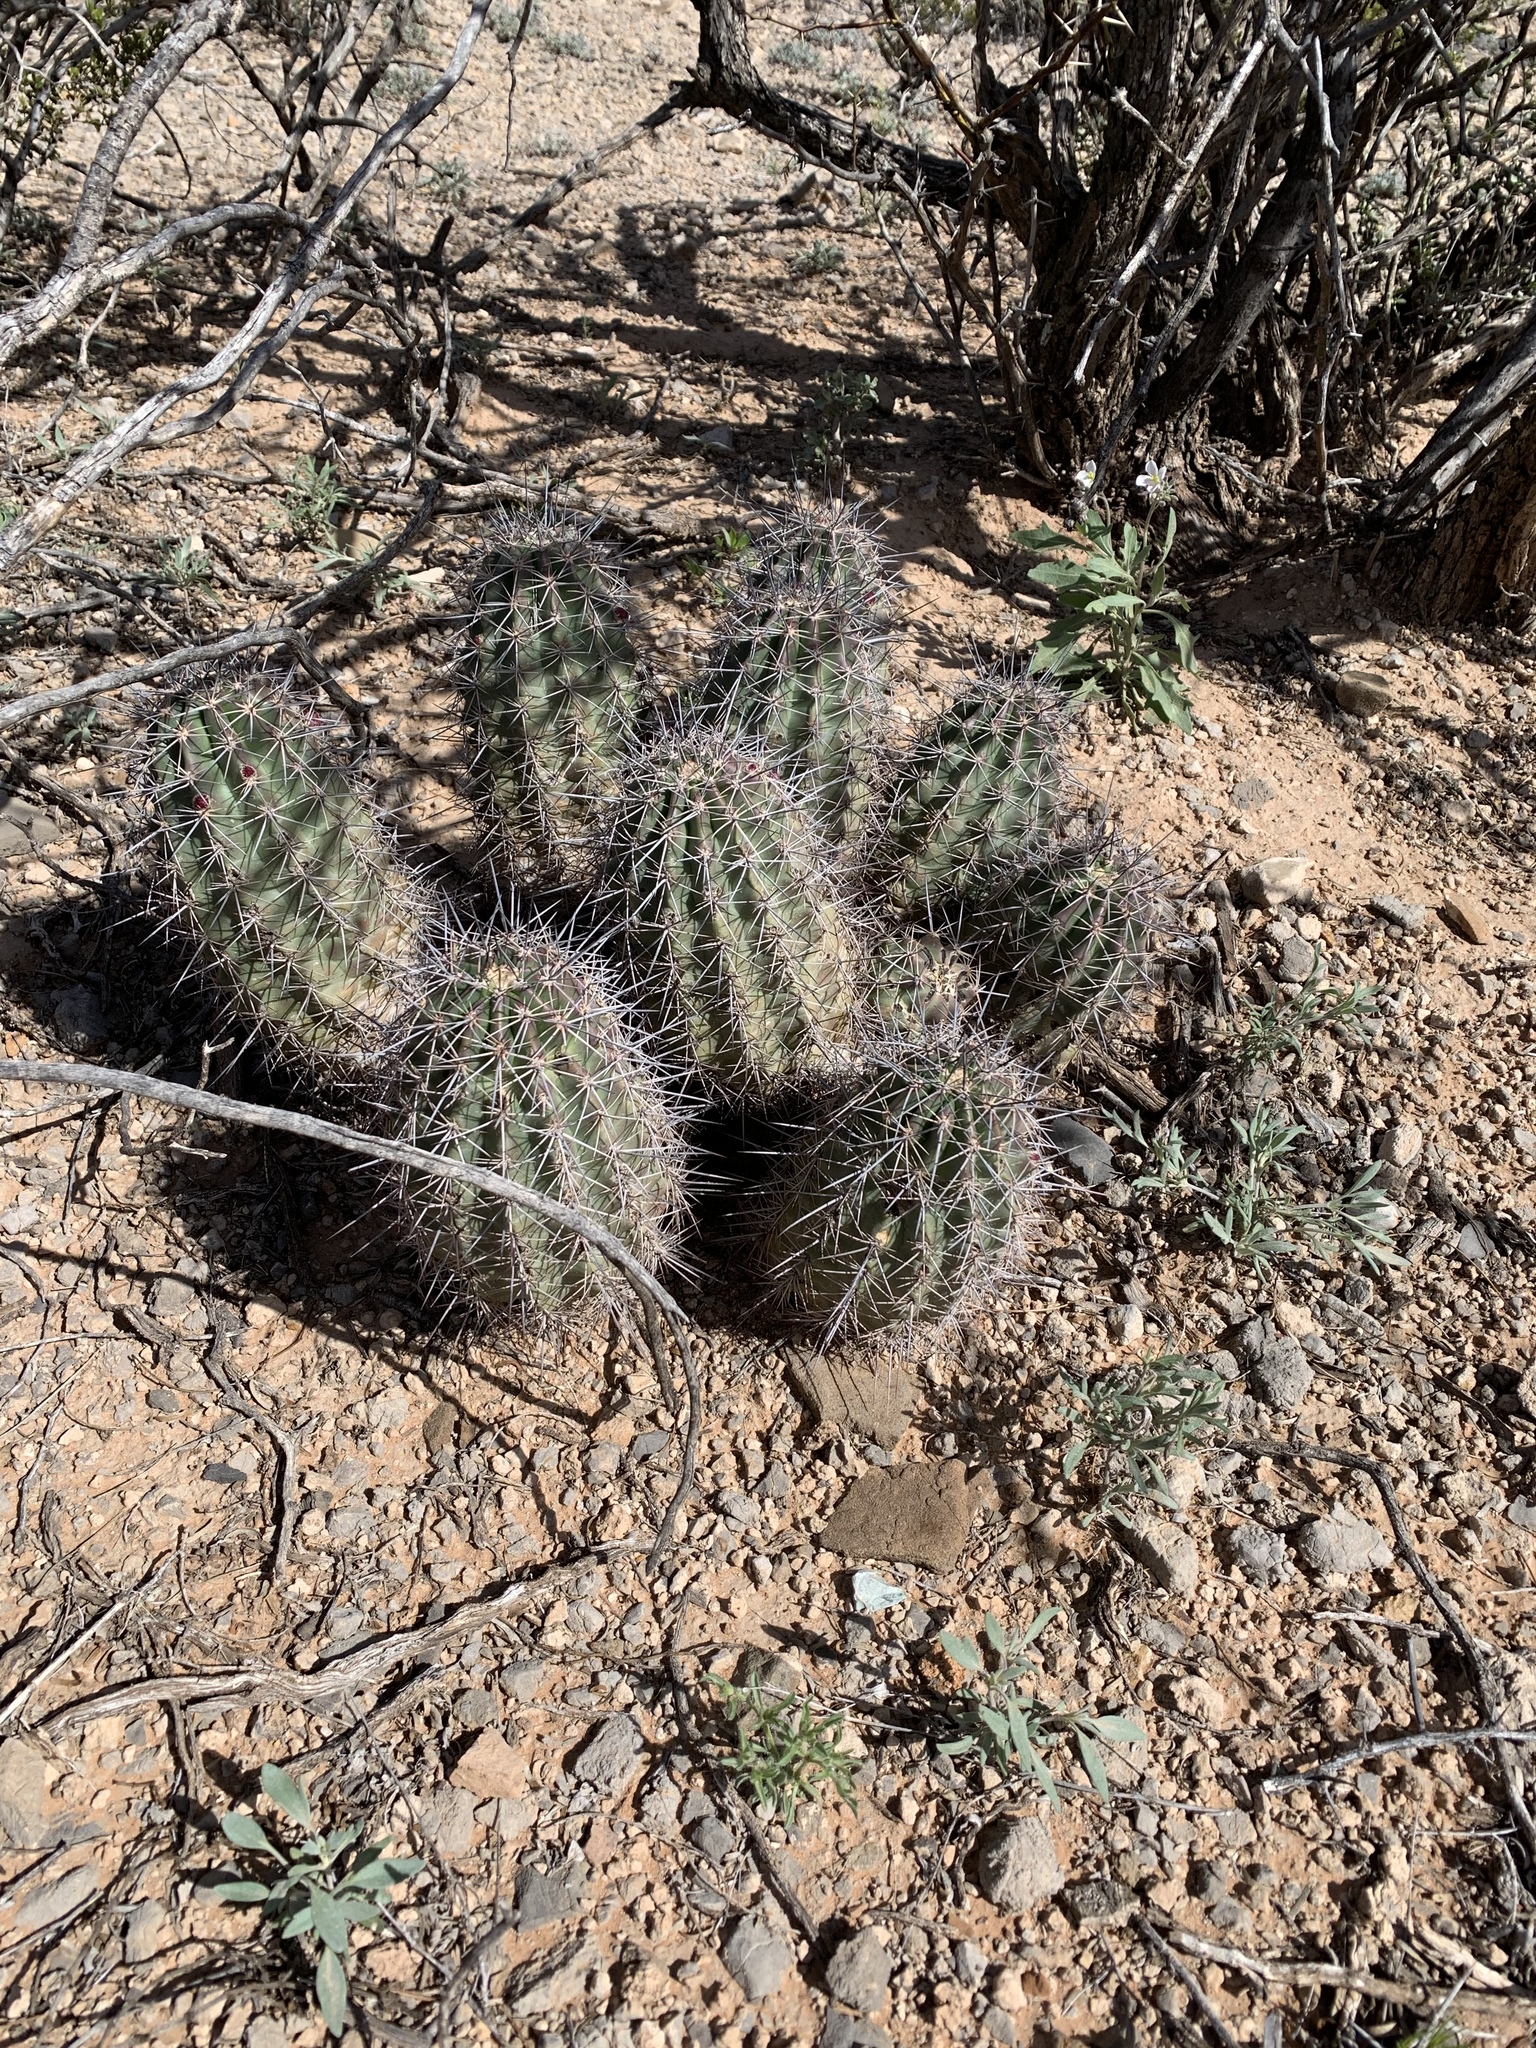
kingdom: Plantae
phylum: Tracheophyta
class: Magnoliopsida
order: Caryophyllales
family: Cactaceae
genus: Echinocereus
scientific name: Echinocereus coccineus
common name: Scarlet hedgehog cactus
